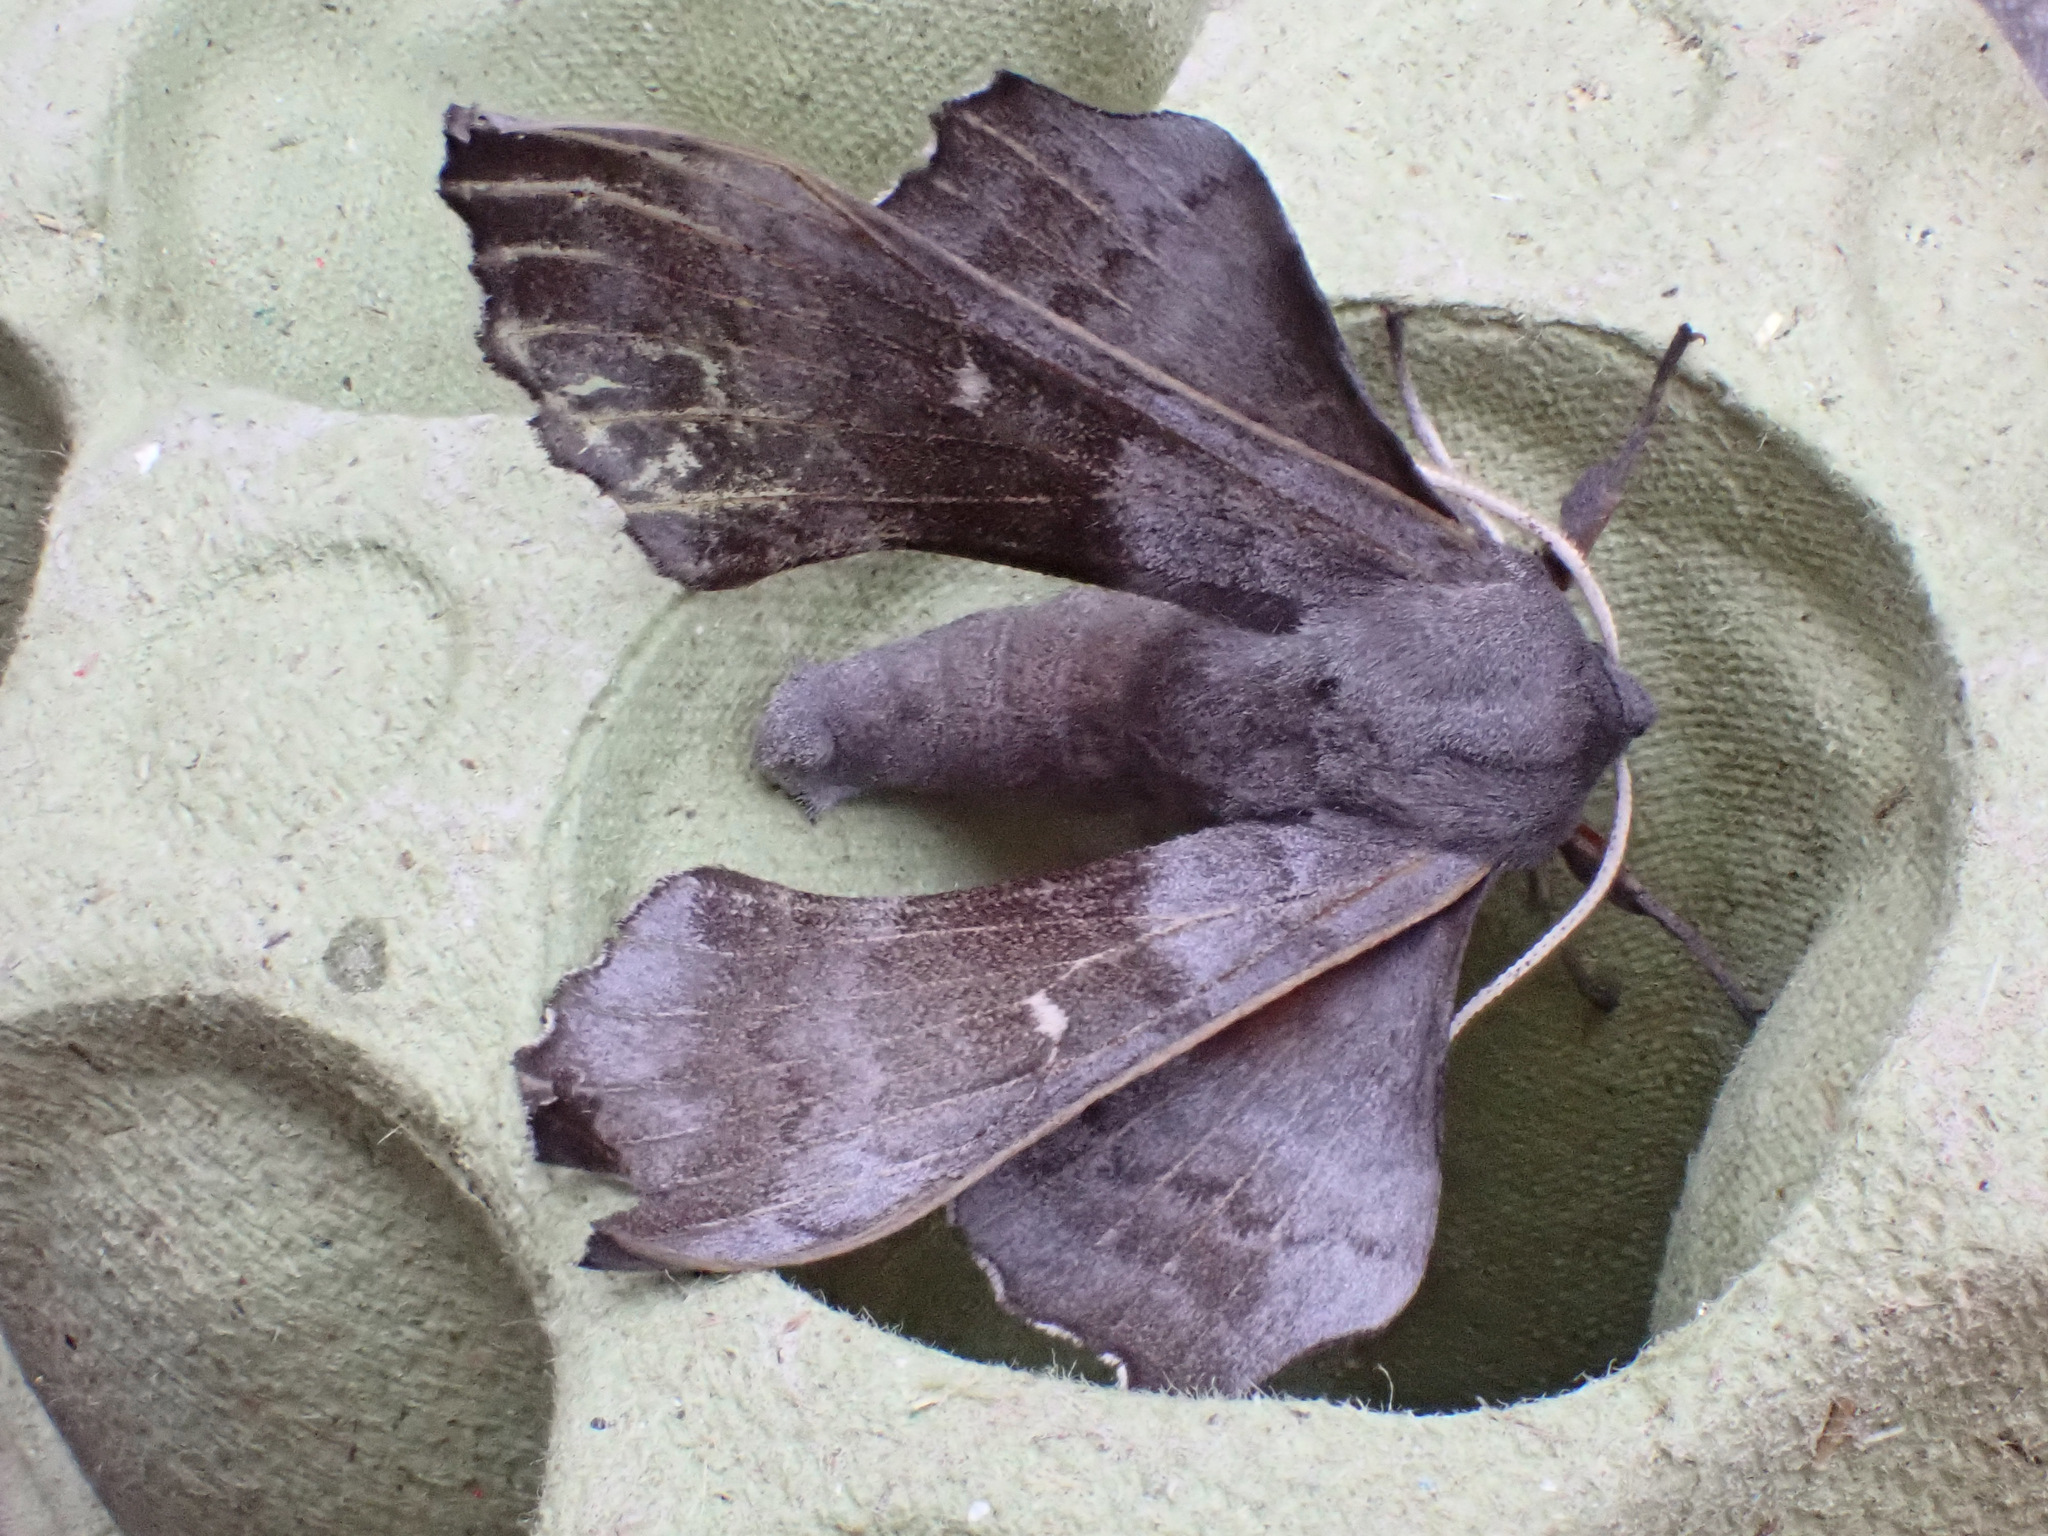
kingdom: Animalia
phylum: Arthropoda
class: Insecta
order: Lepidoptera
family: Sphingidae
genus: Laothoe
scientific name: Laothoe populi
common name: Poplar hawk-moth
